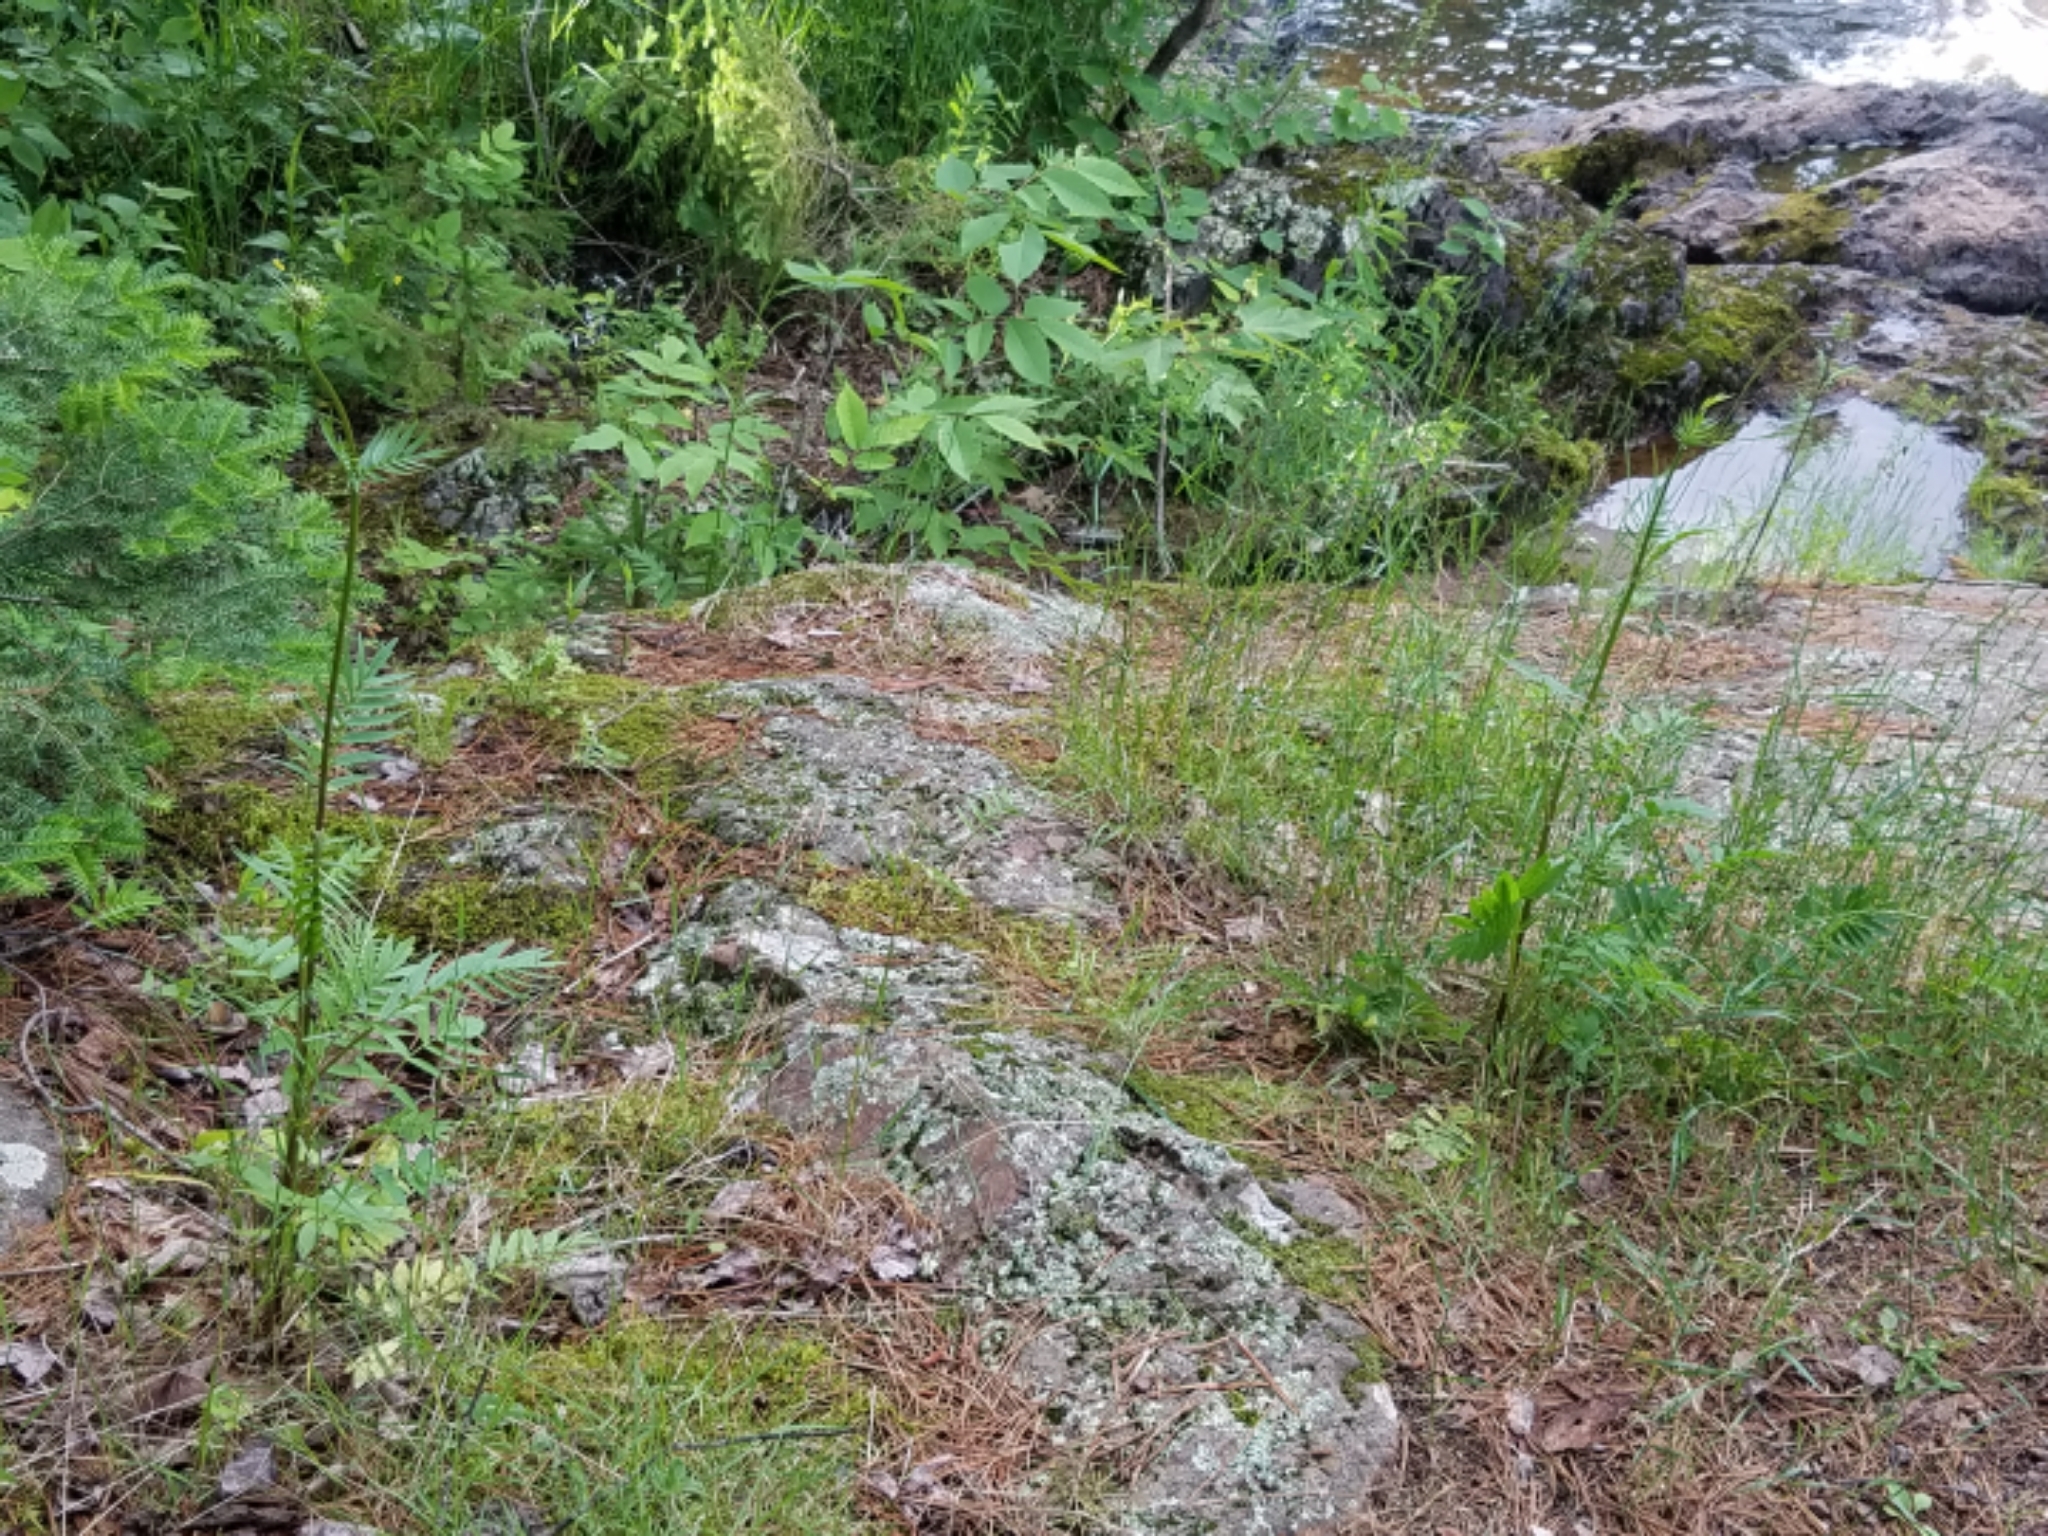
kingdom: Plantae
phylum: Tracheophyta
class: Magnoliopsida
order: Dipsacales
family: Caprifoliaceae
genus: Valeriana
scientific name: Valeriana officinalis
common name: Common valerian
